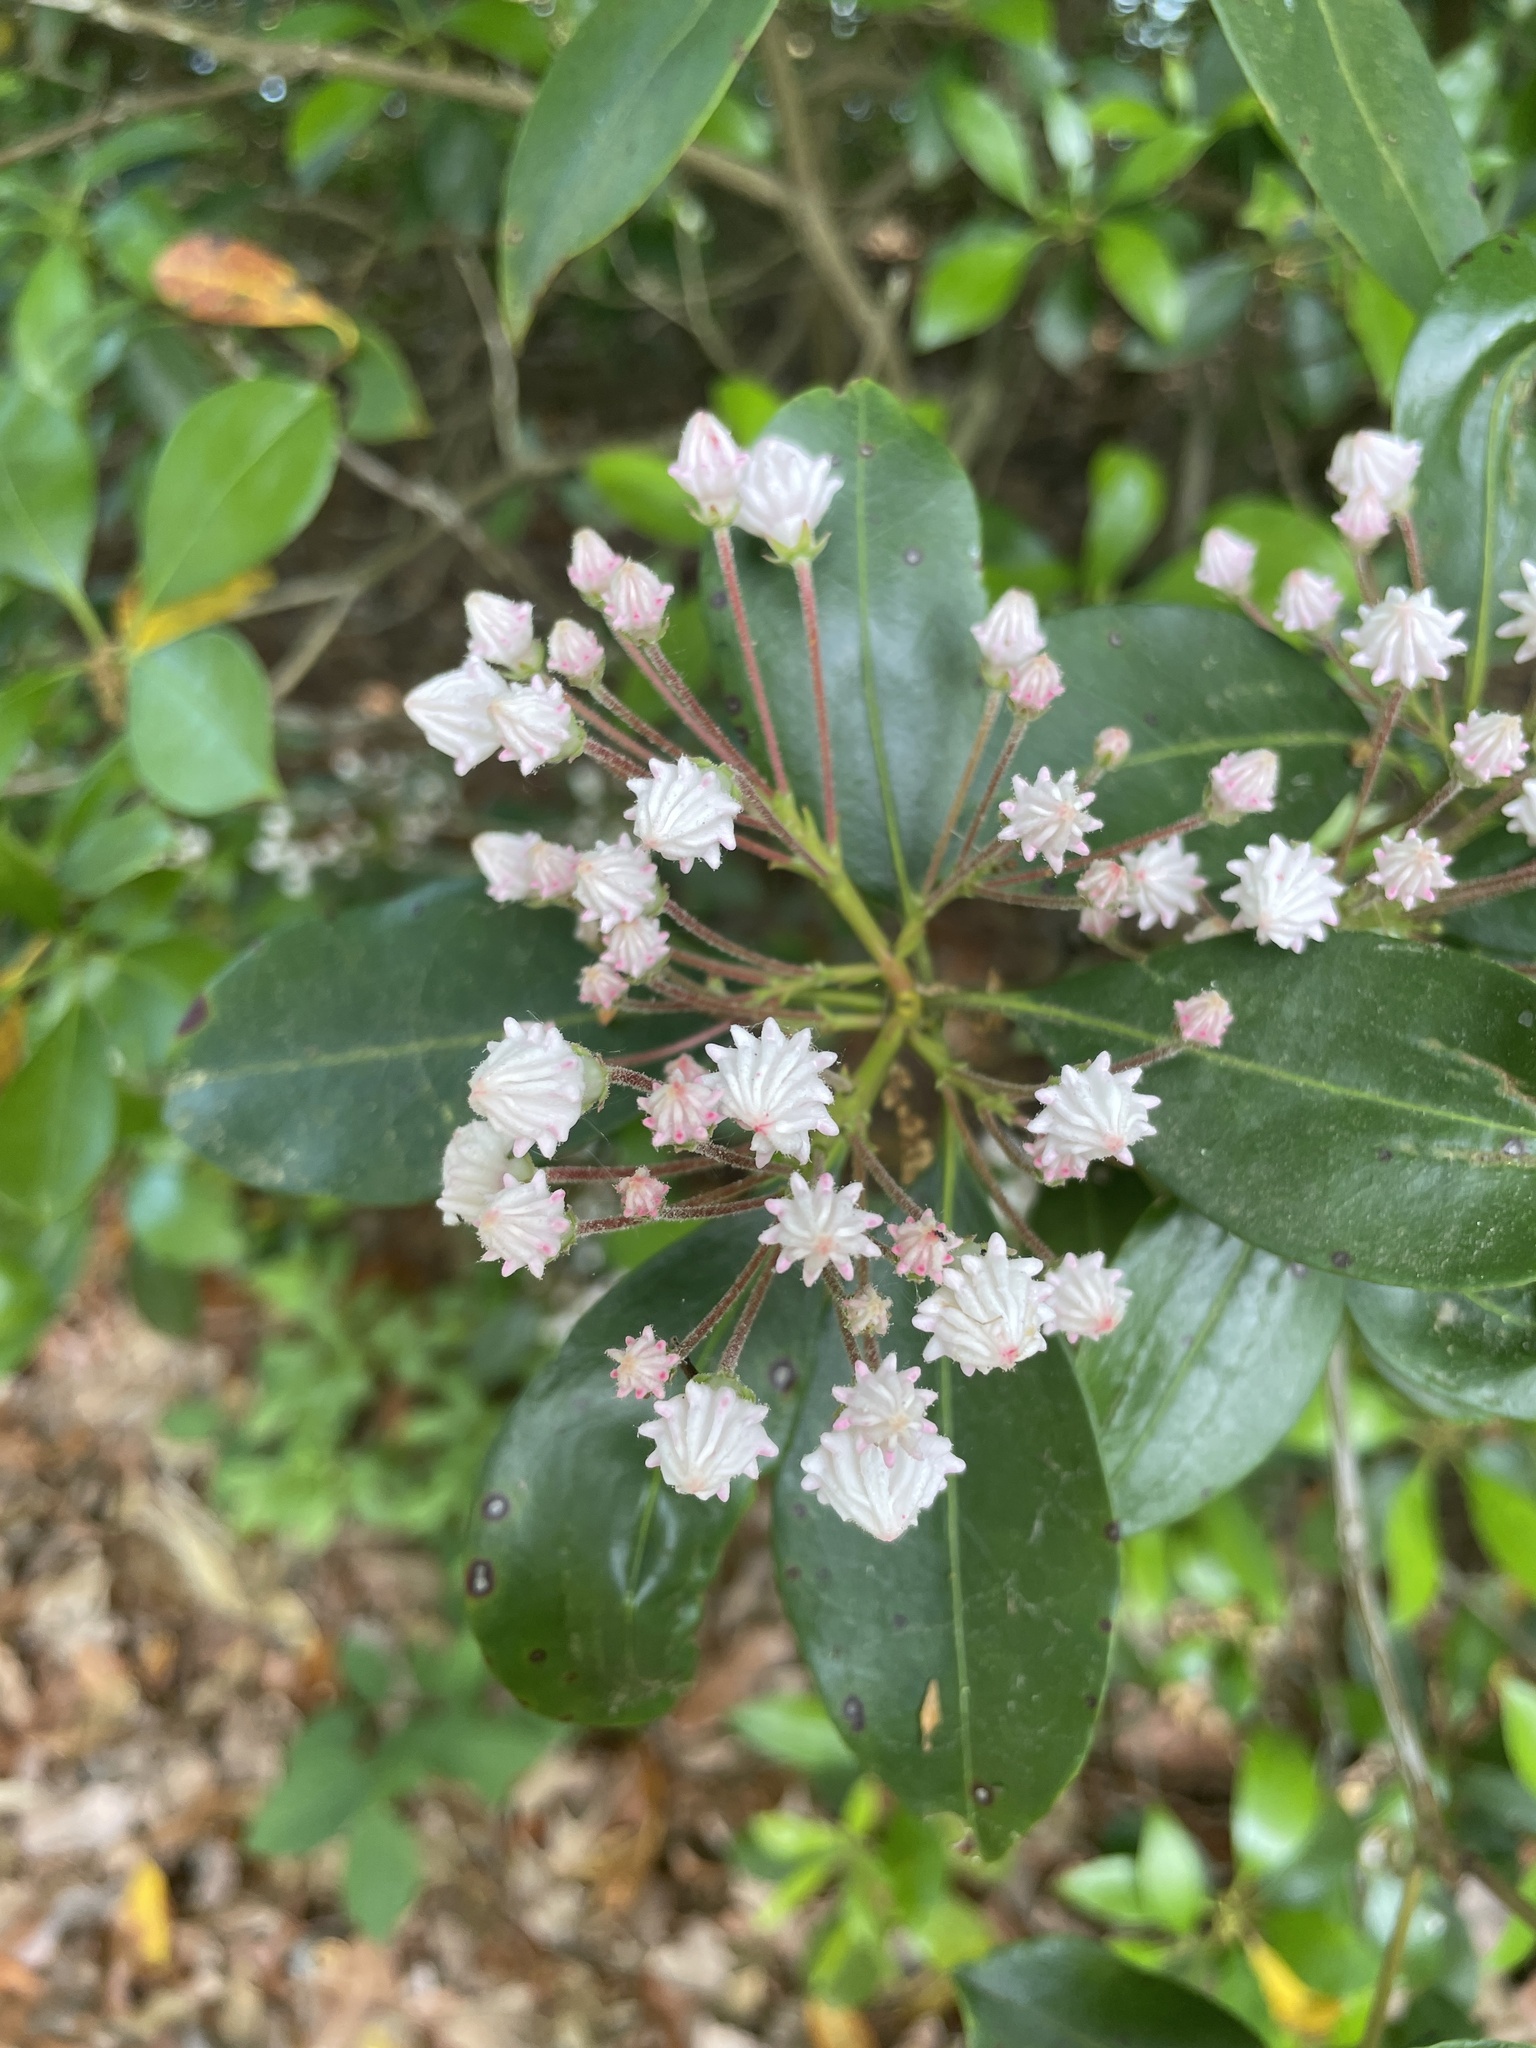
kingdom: Plantae
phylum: Tracheophyta
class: Magnoliopsida
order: Ericales
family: Ericaceae
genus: Kalmia
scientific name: Kalmia latifolia
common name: Mountain-laurel
